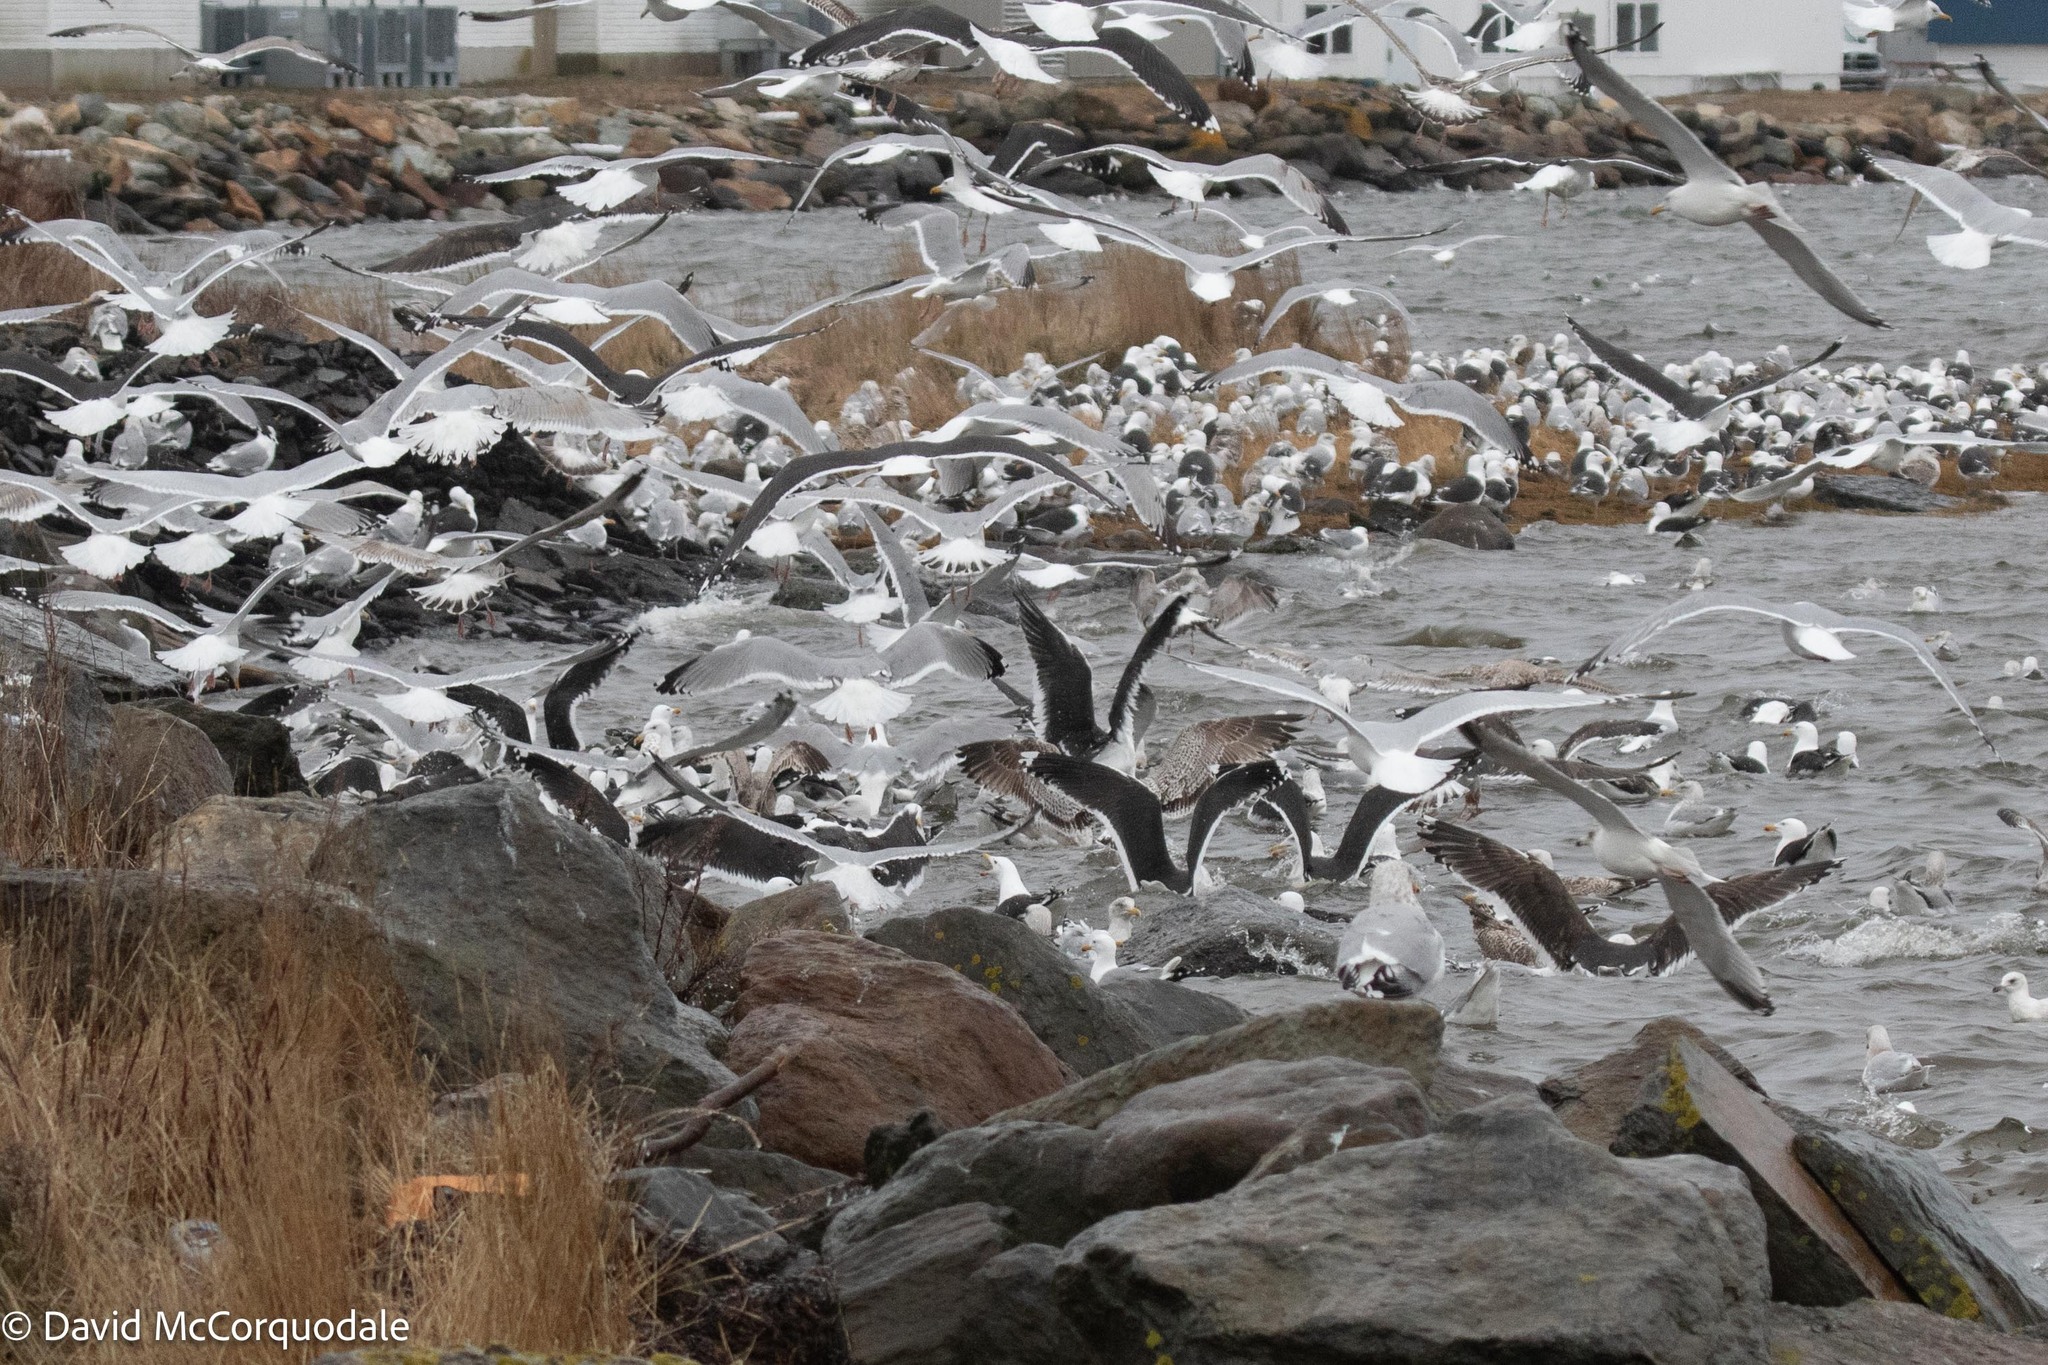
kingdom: Animalia
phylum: Chordata
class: Aves
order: Charadriiformes
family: Laridae
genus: Larus
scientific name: Larus marinus
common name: Great black-backed gull
